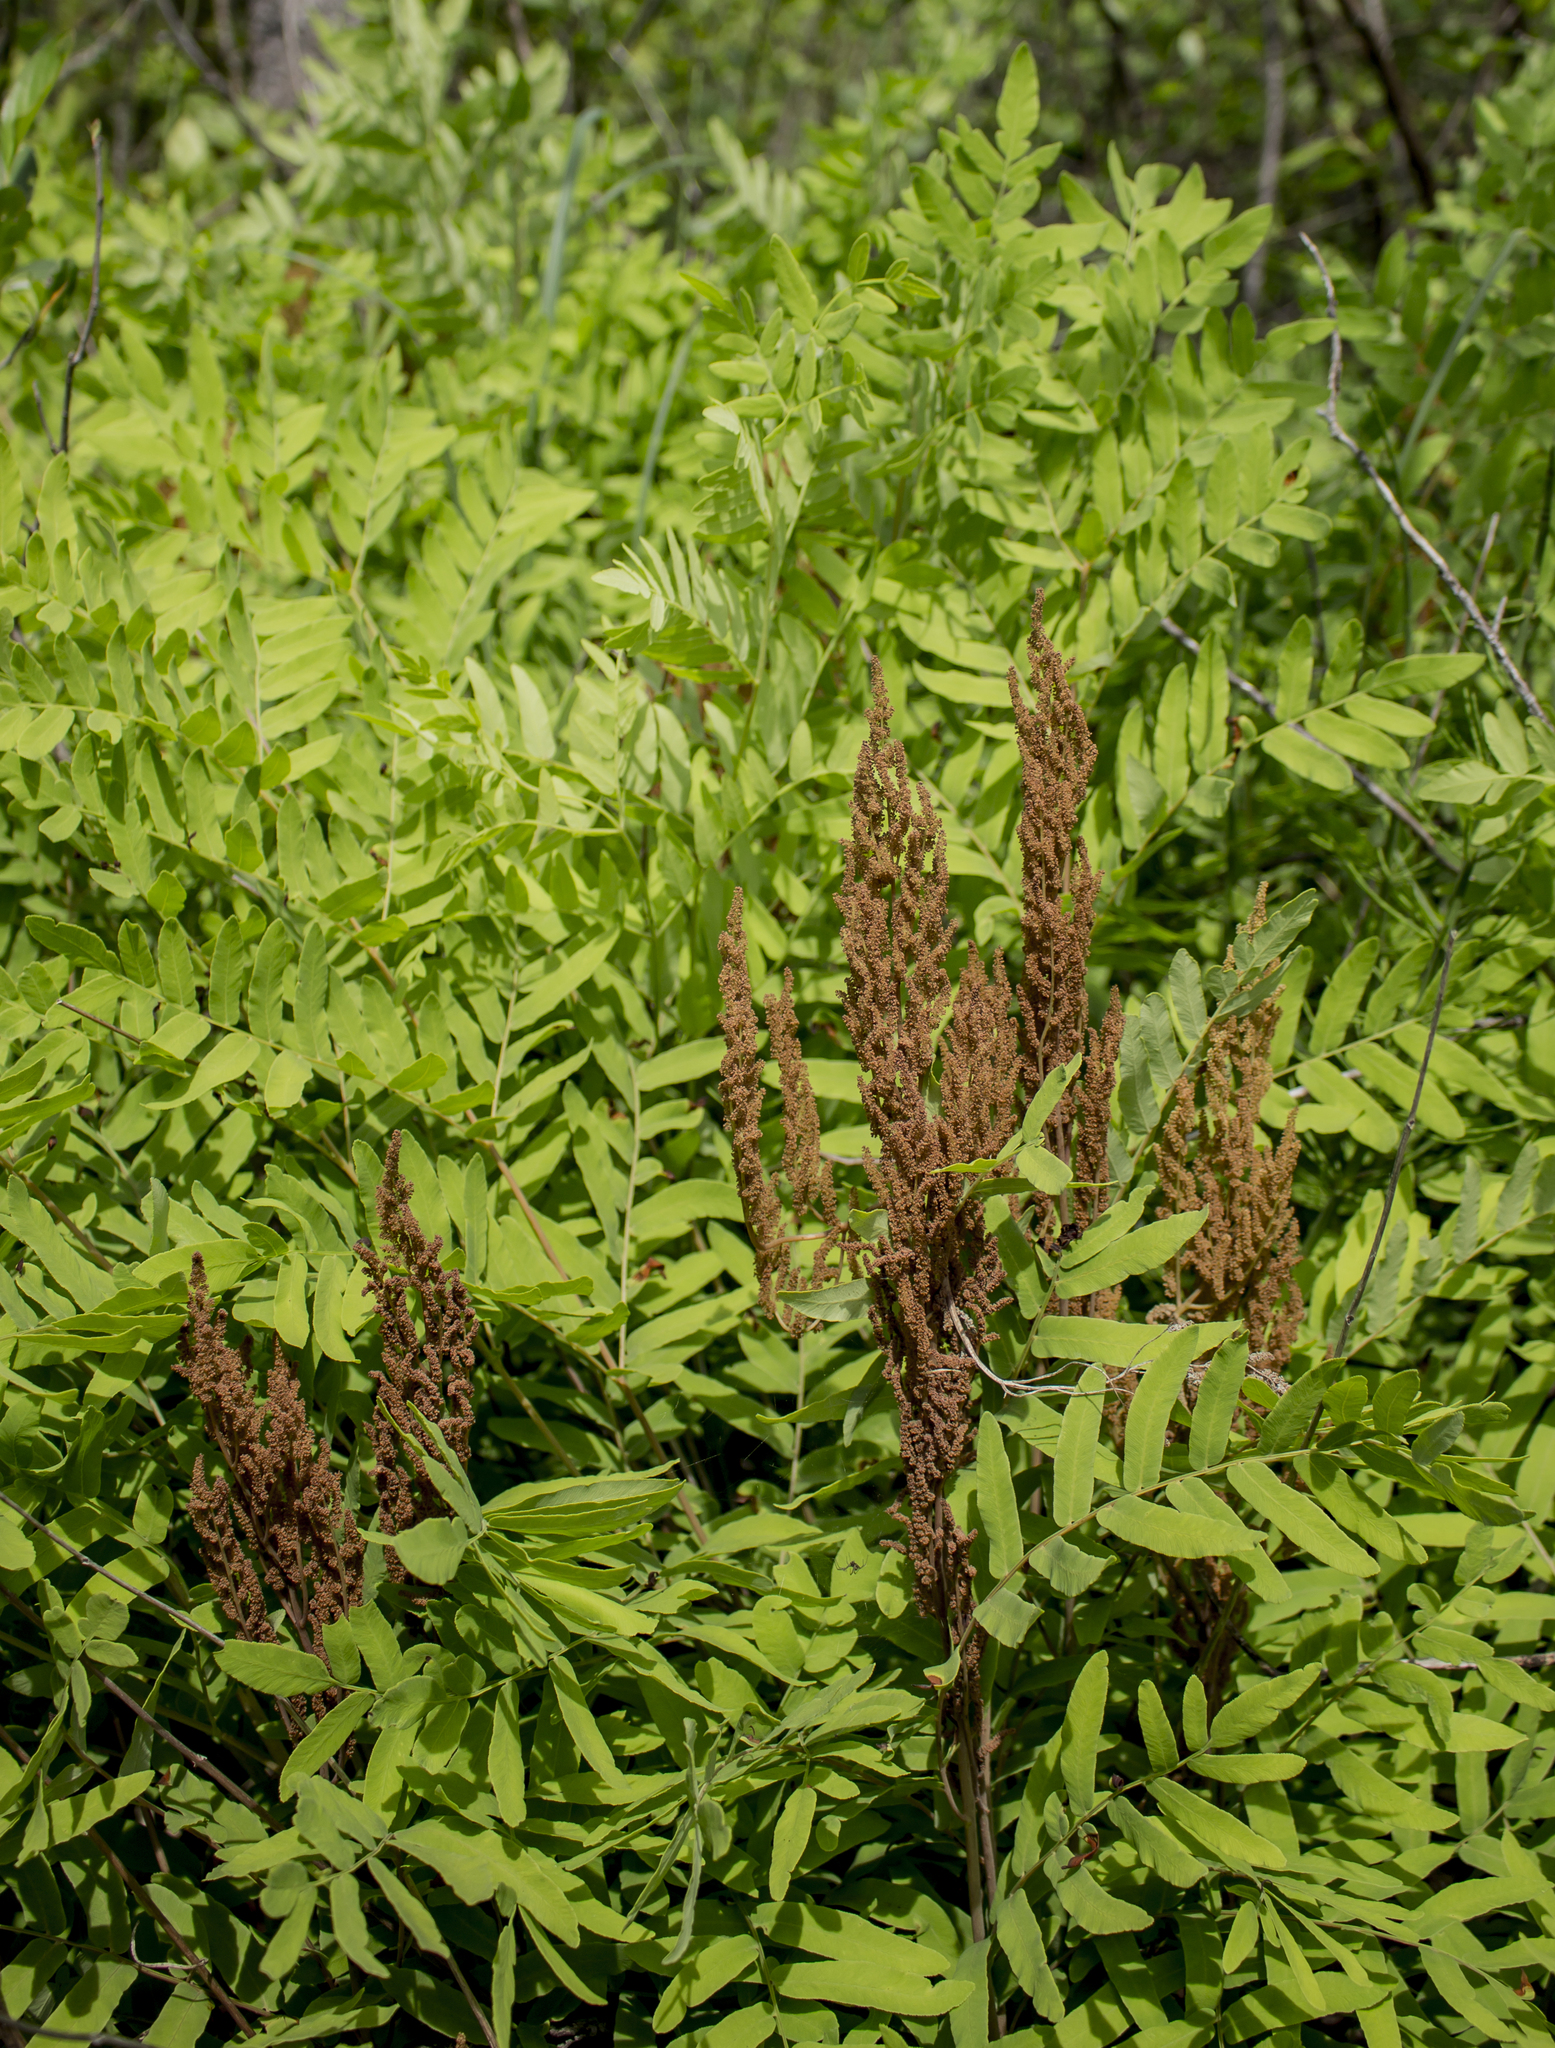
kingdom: Plantae
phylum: Tracheophyta
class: Polypodiopsida
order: Osmundales
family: Osmundaceae
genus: Osmunda
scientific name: Osmunda spectabilis
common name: American royal fern
